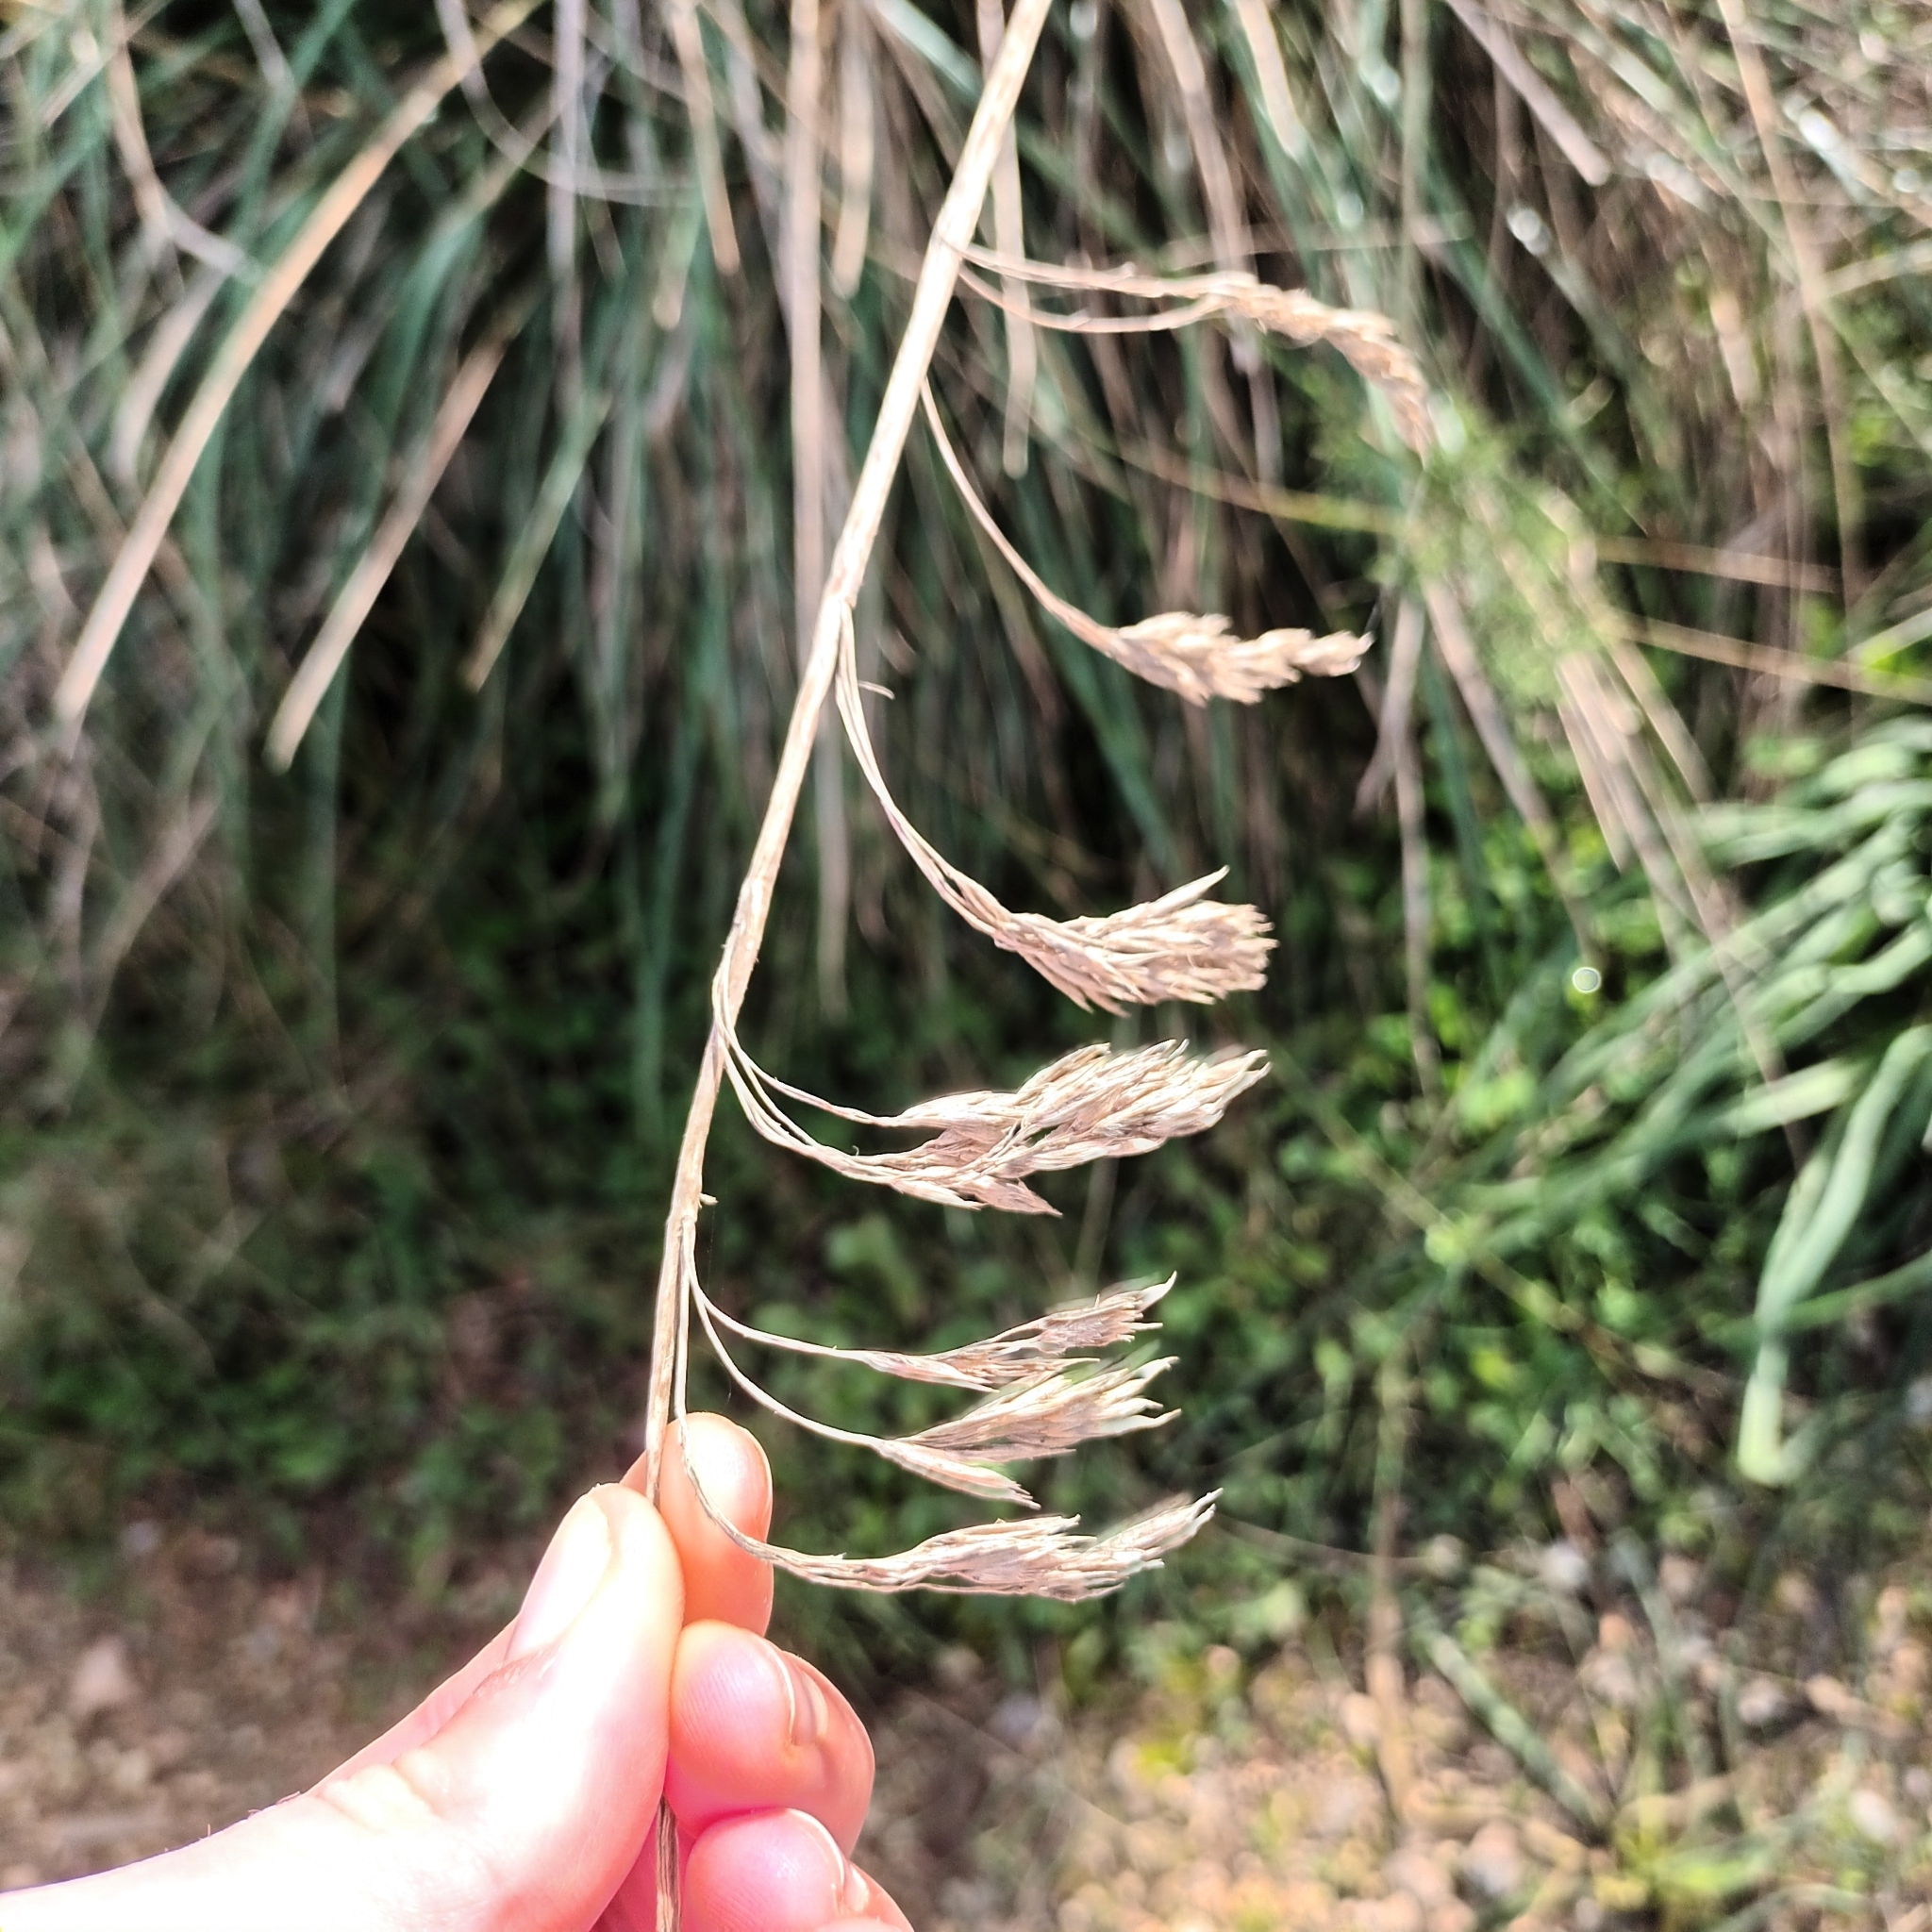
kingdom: Plantae
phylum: Tracheophyta
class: Liliopsida
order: Poales
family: Poaceae
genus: Ampelodesmos
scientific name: Ampelodesmos mauritanicus
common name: Mauritanian grass
